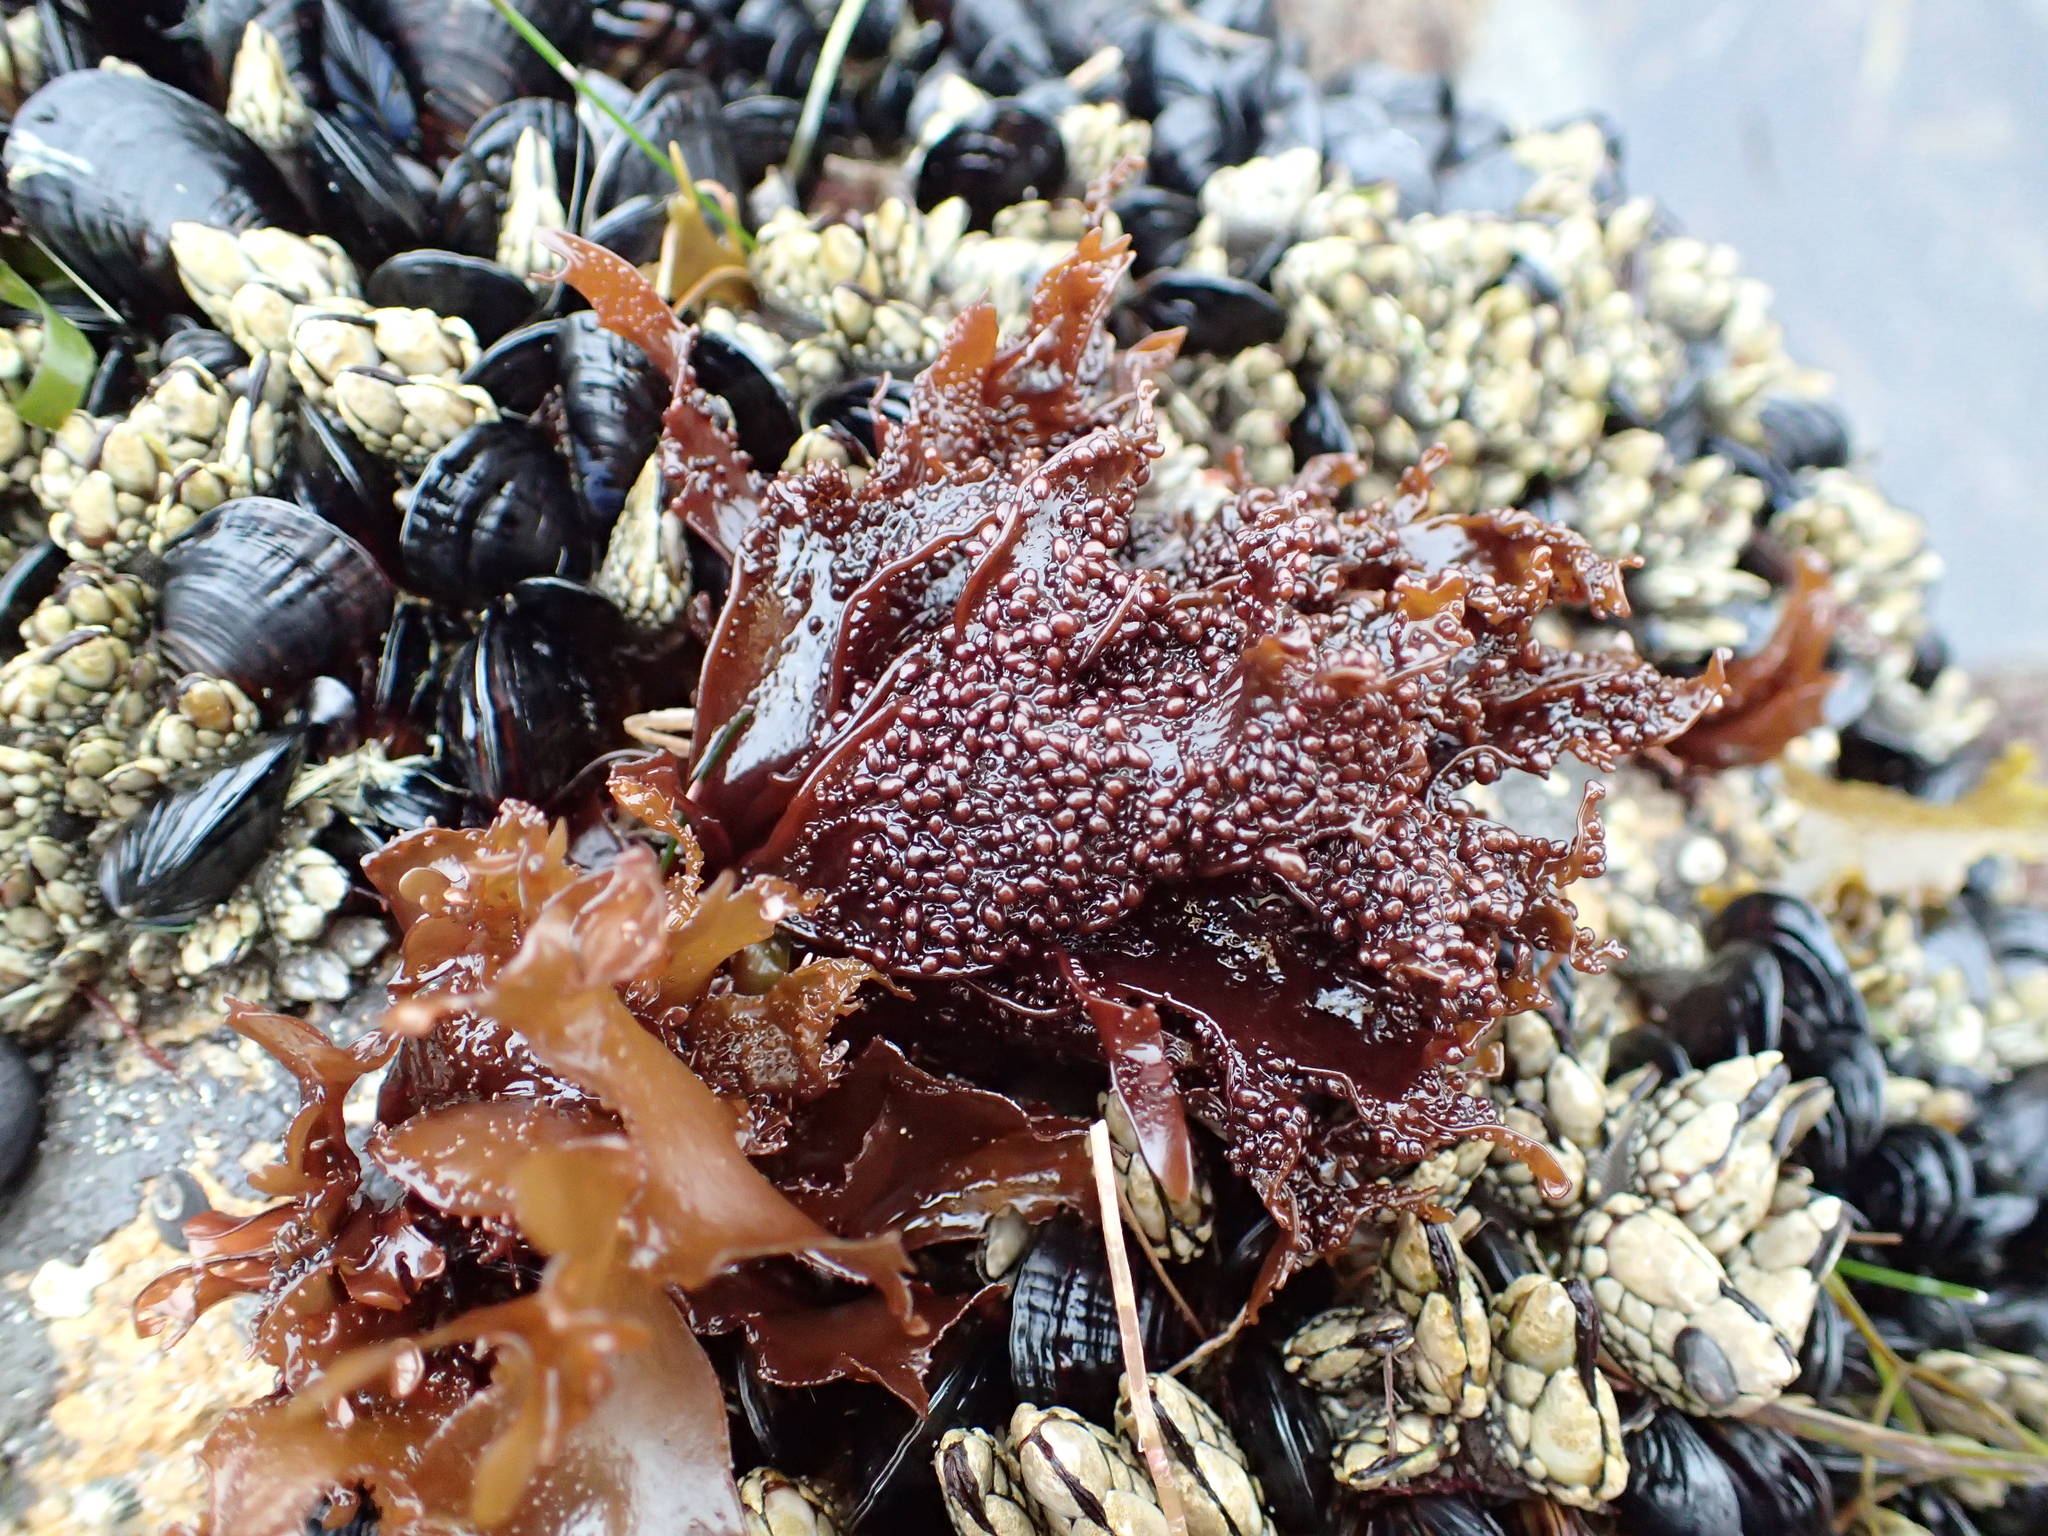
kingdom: Plantae
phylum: Rhodophyta
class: Florideophyceae
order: Gigartinales
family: Phyllophoraceae
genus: Mastocarpus
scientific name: Mastocarpus papillatus
